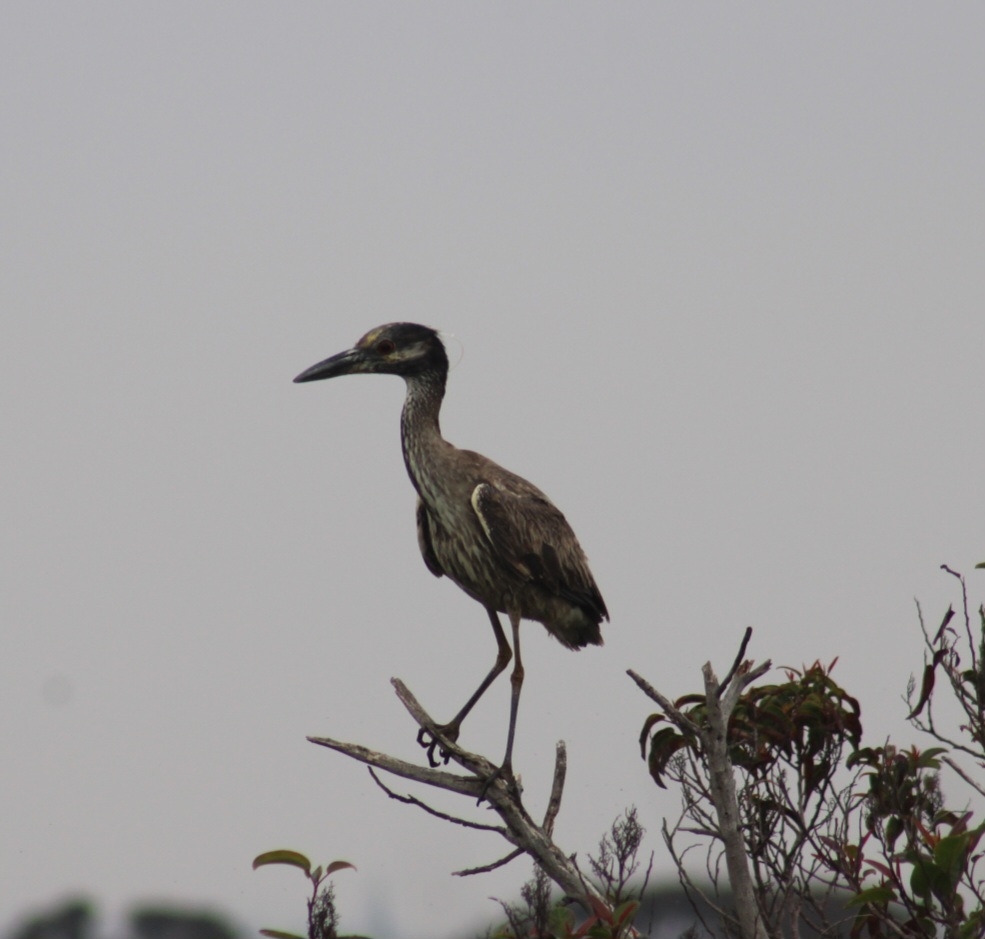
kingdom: Animalia
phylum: Chordata
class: Aves
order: Pelecaniformes
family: Ardeidae
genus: Nyctanassa
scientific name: Nyctanassa violacea
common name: Yellow-crowned night heron
